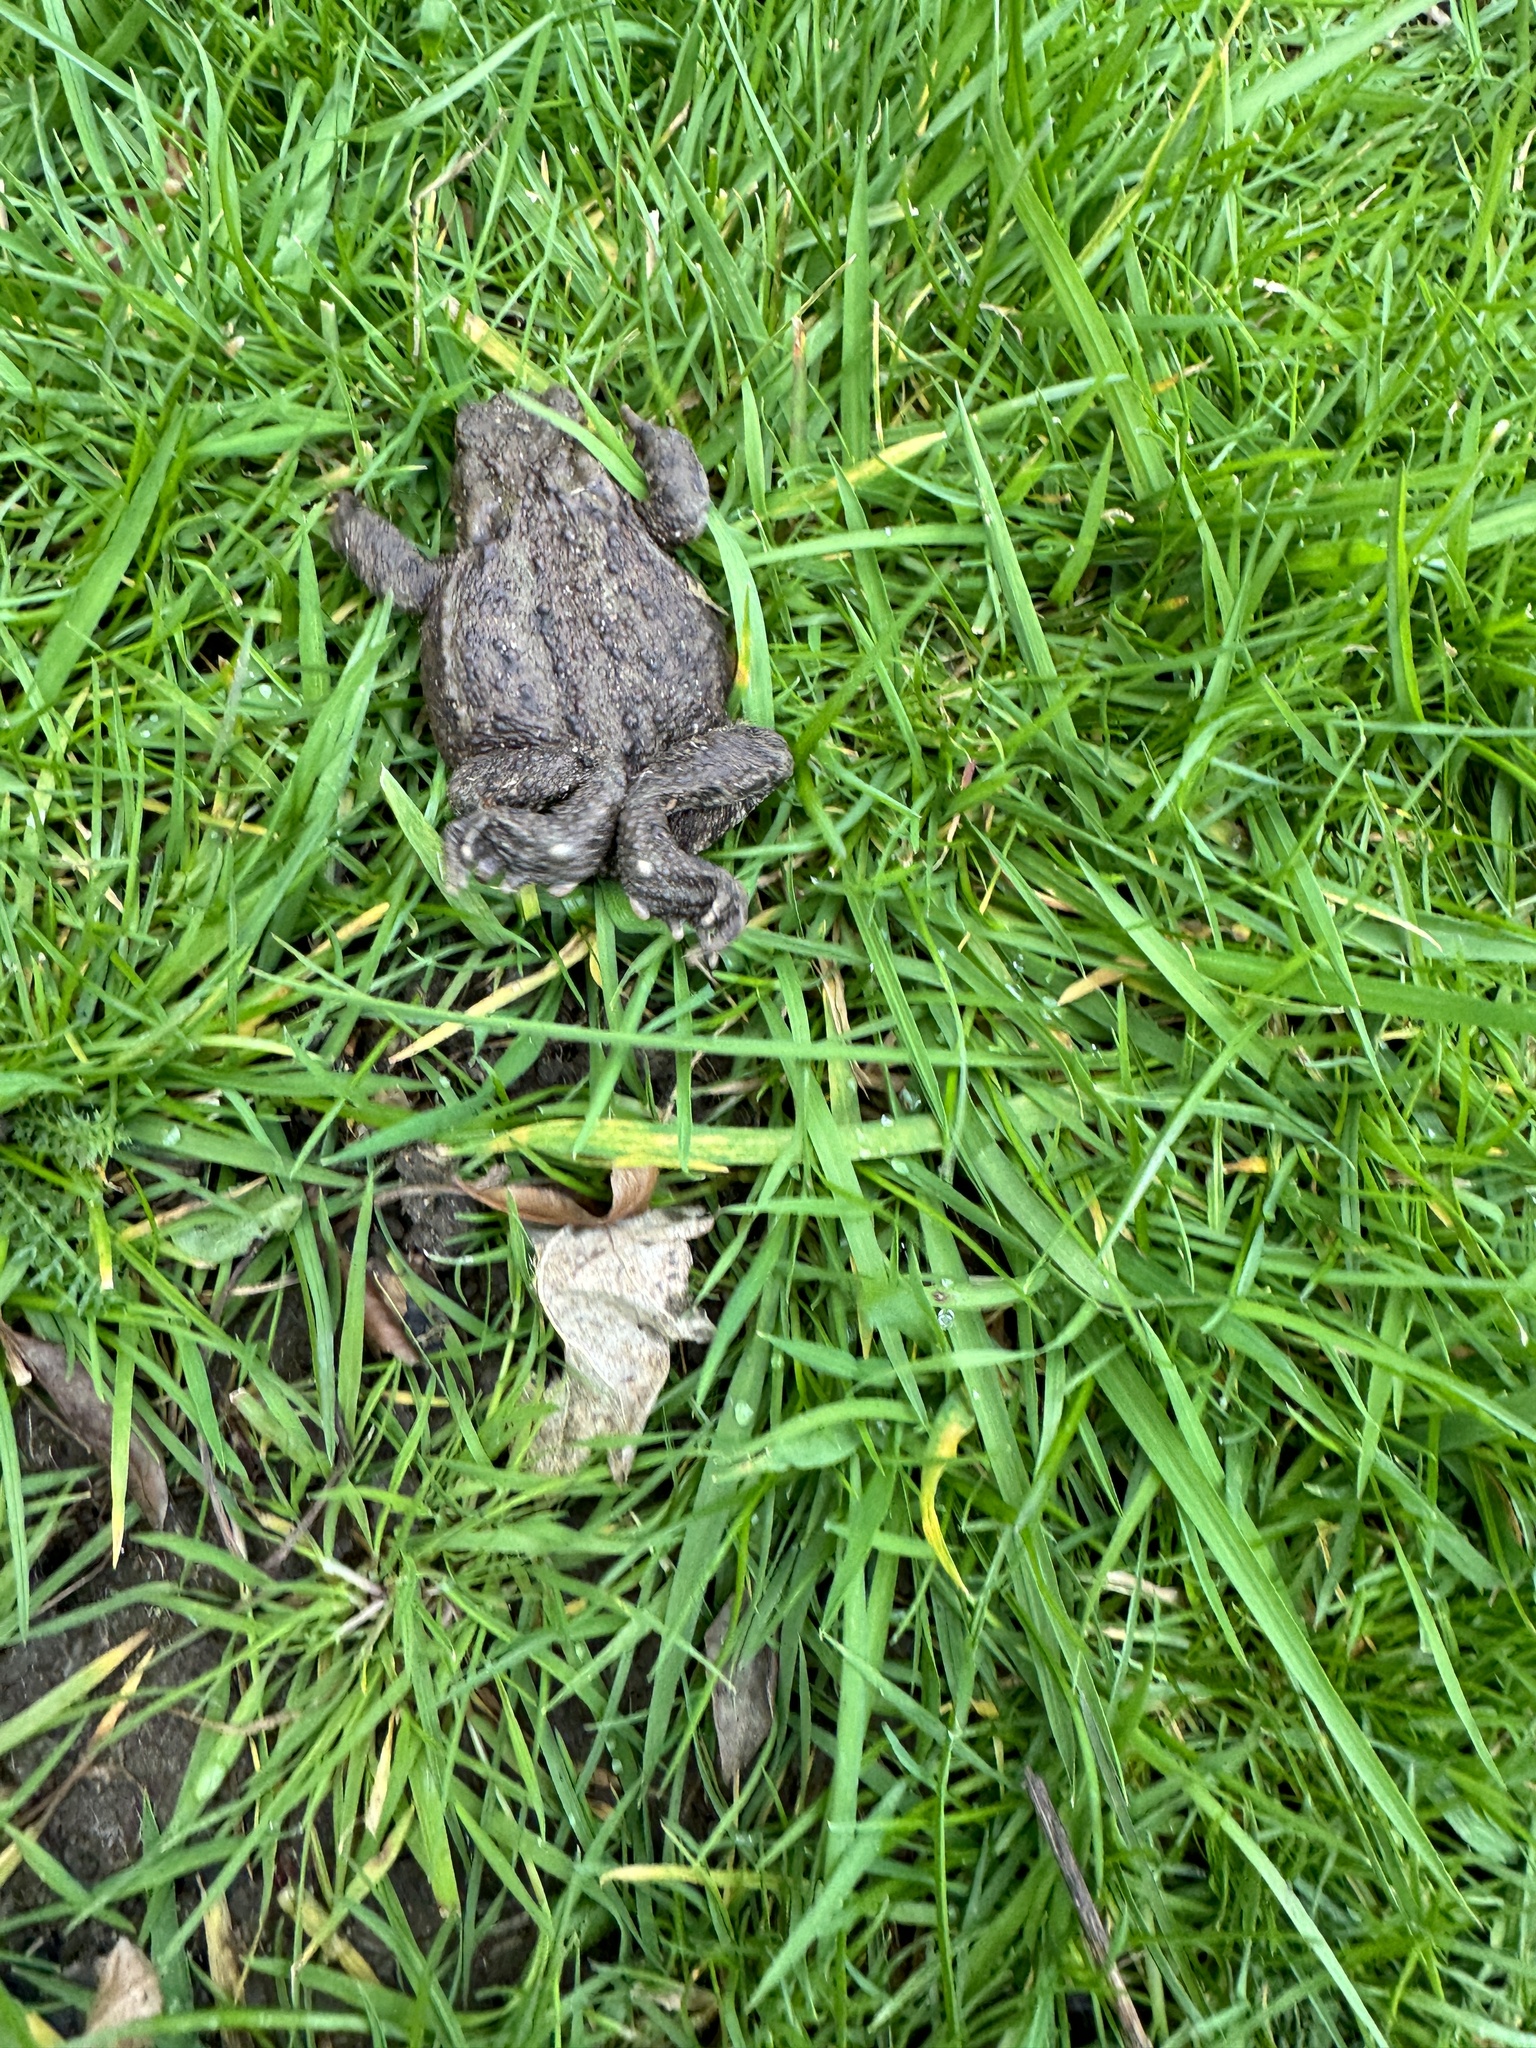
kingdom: Animalia
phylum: Chordata
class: Amphibia
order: Anura
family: Bufonidae
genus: Bufo
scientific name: Bufo bufo
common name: Common toad
